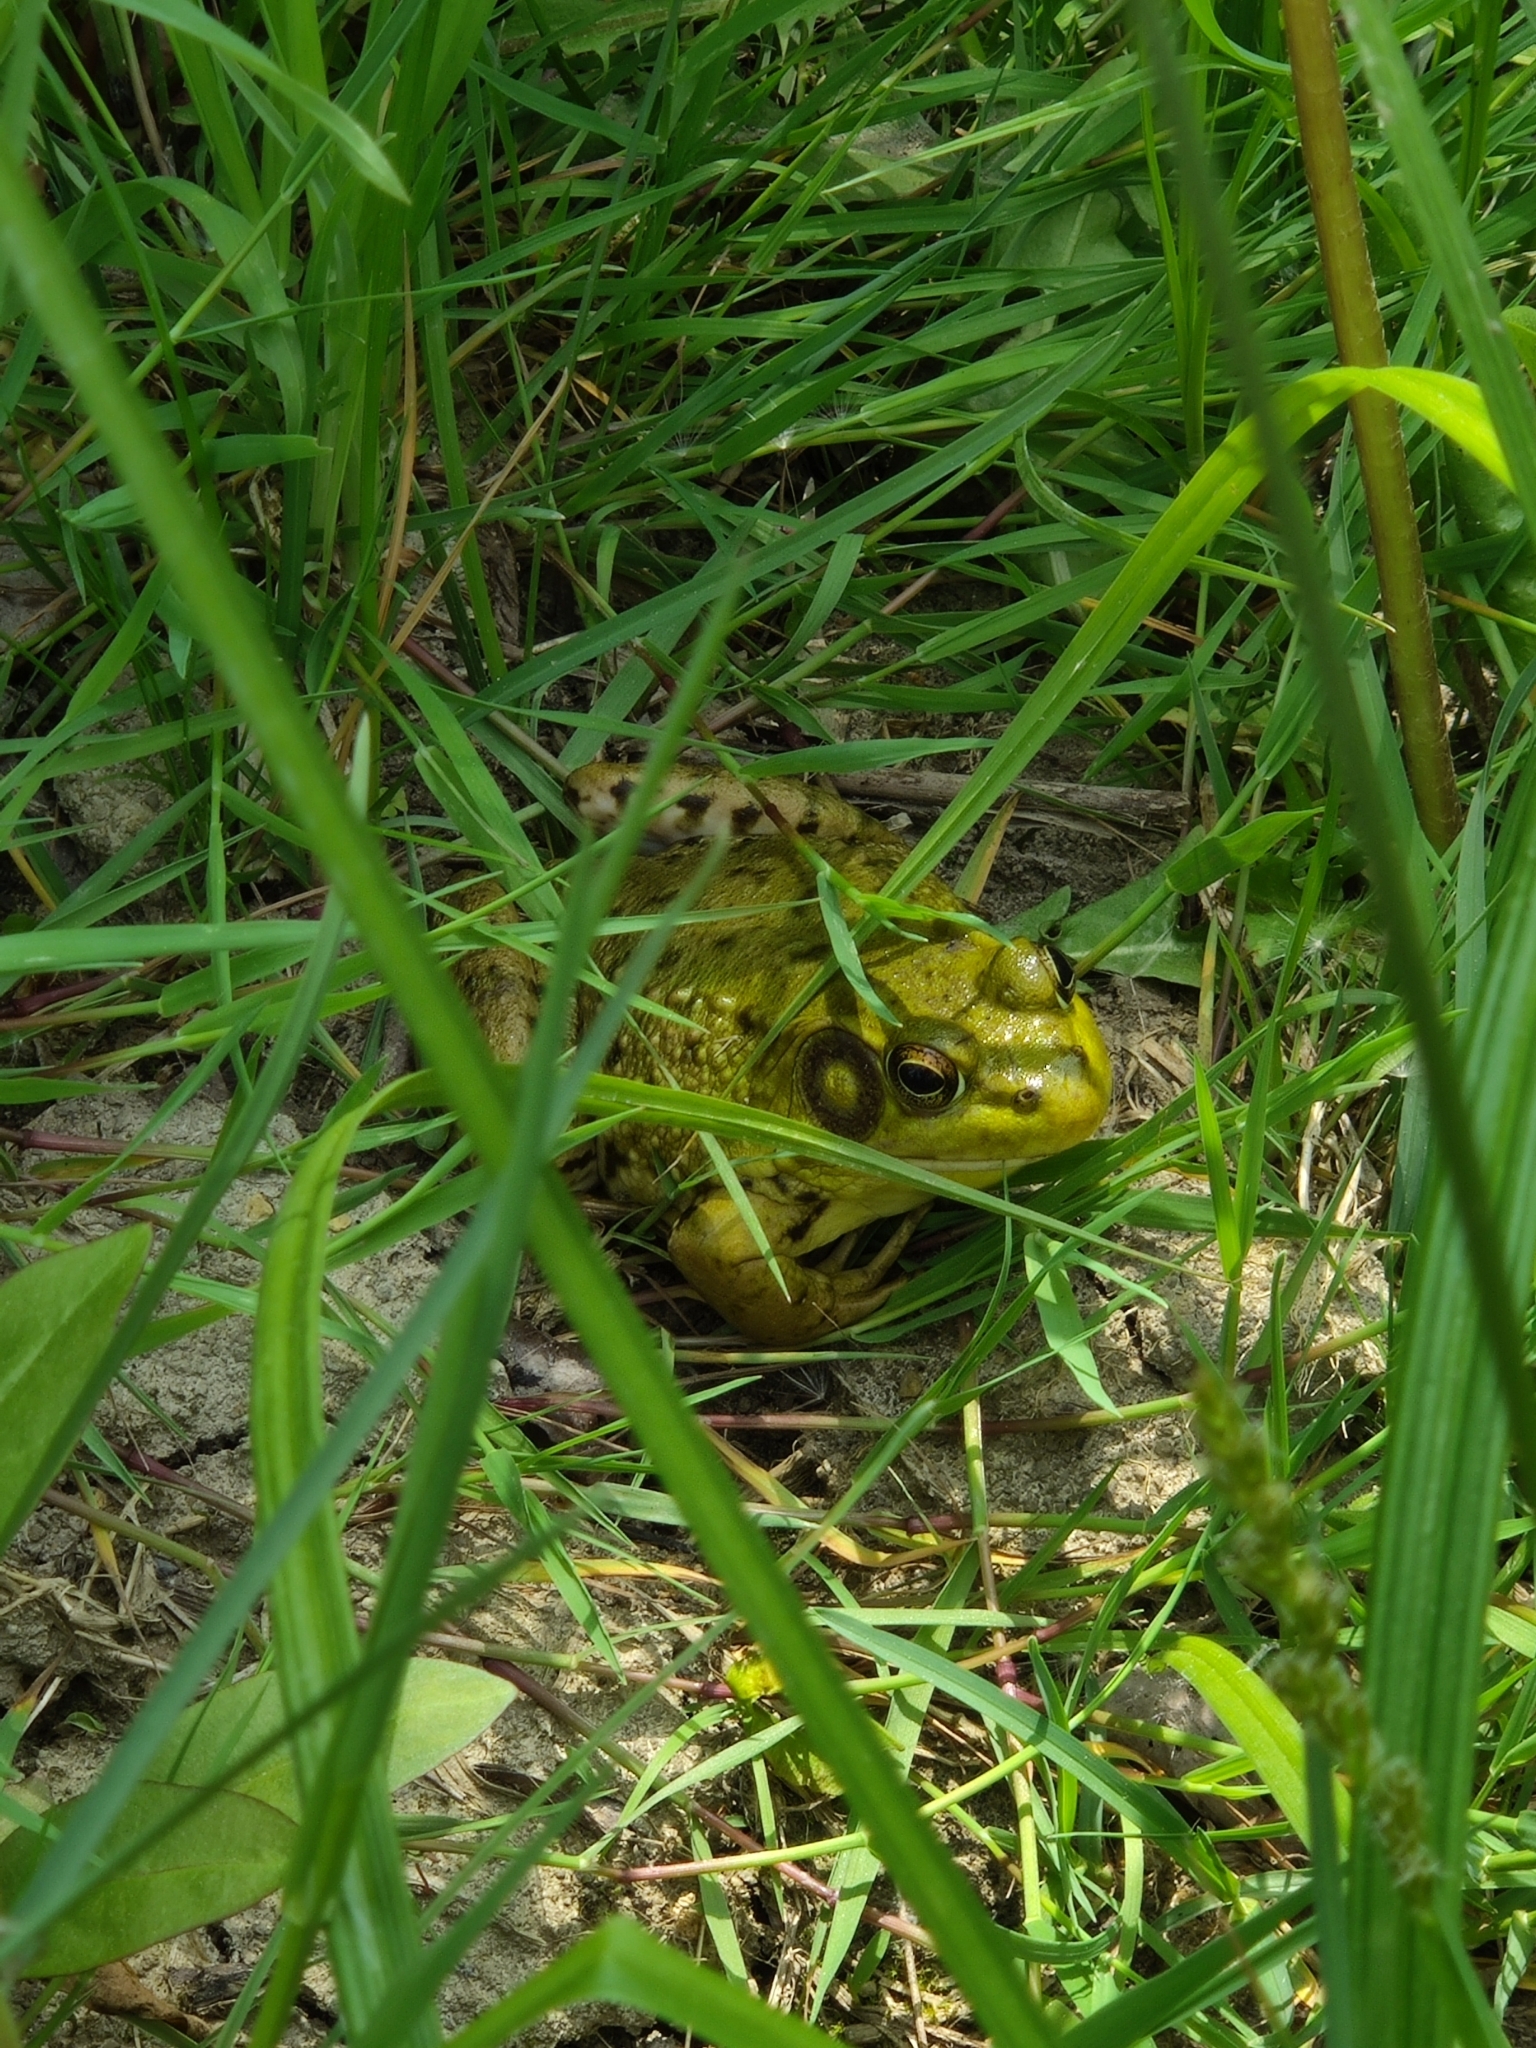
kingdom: Animalia
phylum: Chordata
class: Amphibia
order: Anura
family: Ranidae
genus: Lithobates
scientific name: Lithobates clamitans
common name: Green frog
